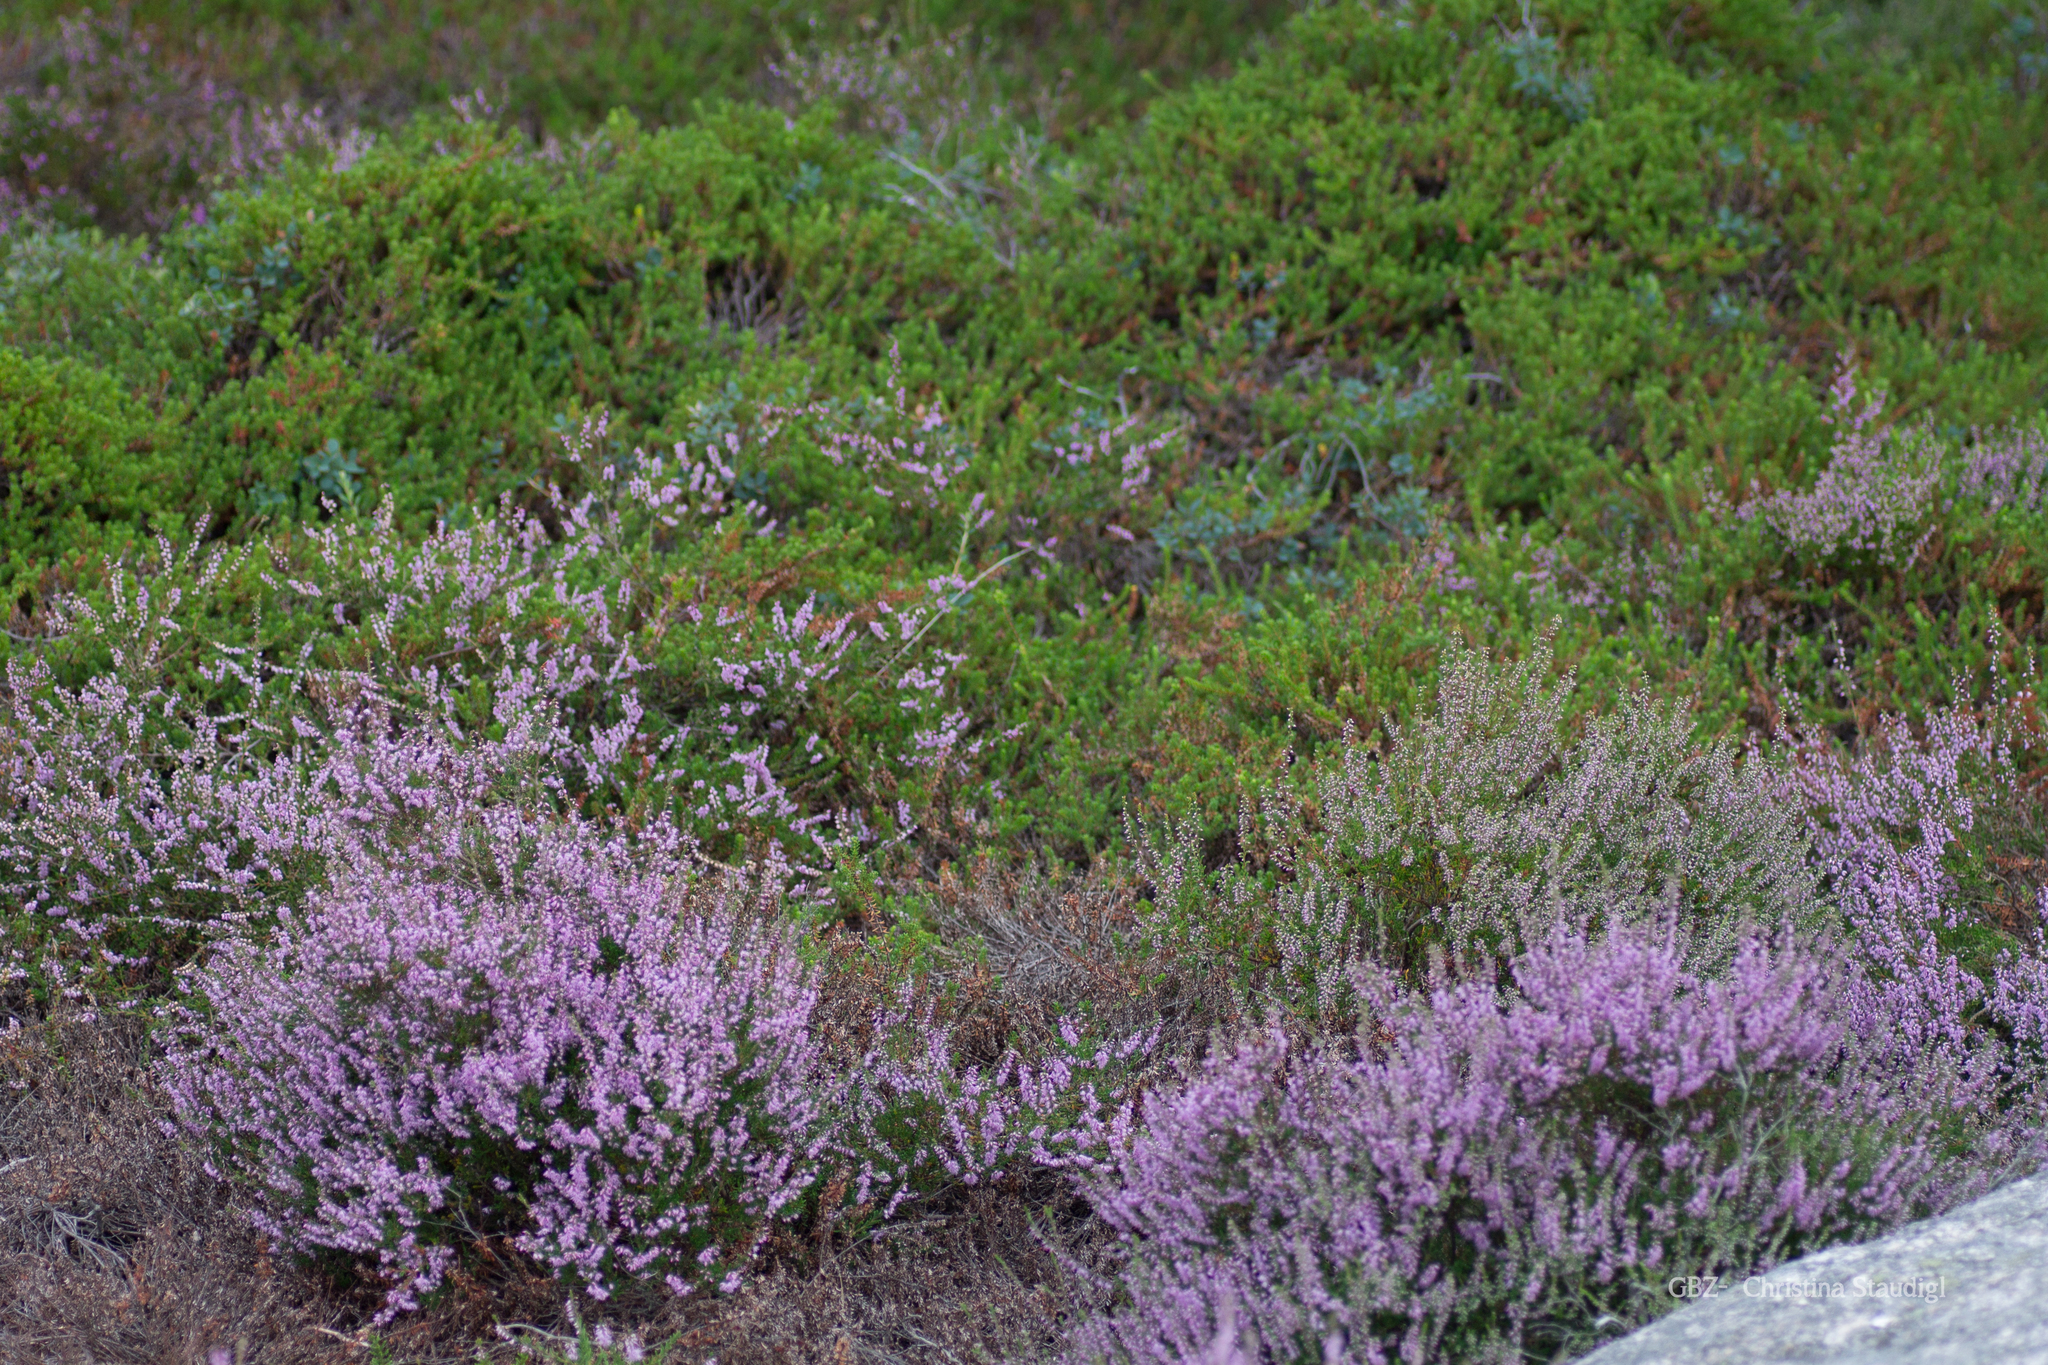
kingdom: Plantae
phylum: Tracheophyta
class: Magnoliopsida
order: Ericales
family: Ericaceae
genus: Calluna
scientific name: Calluna vulgaris
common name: Heather
